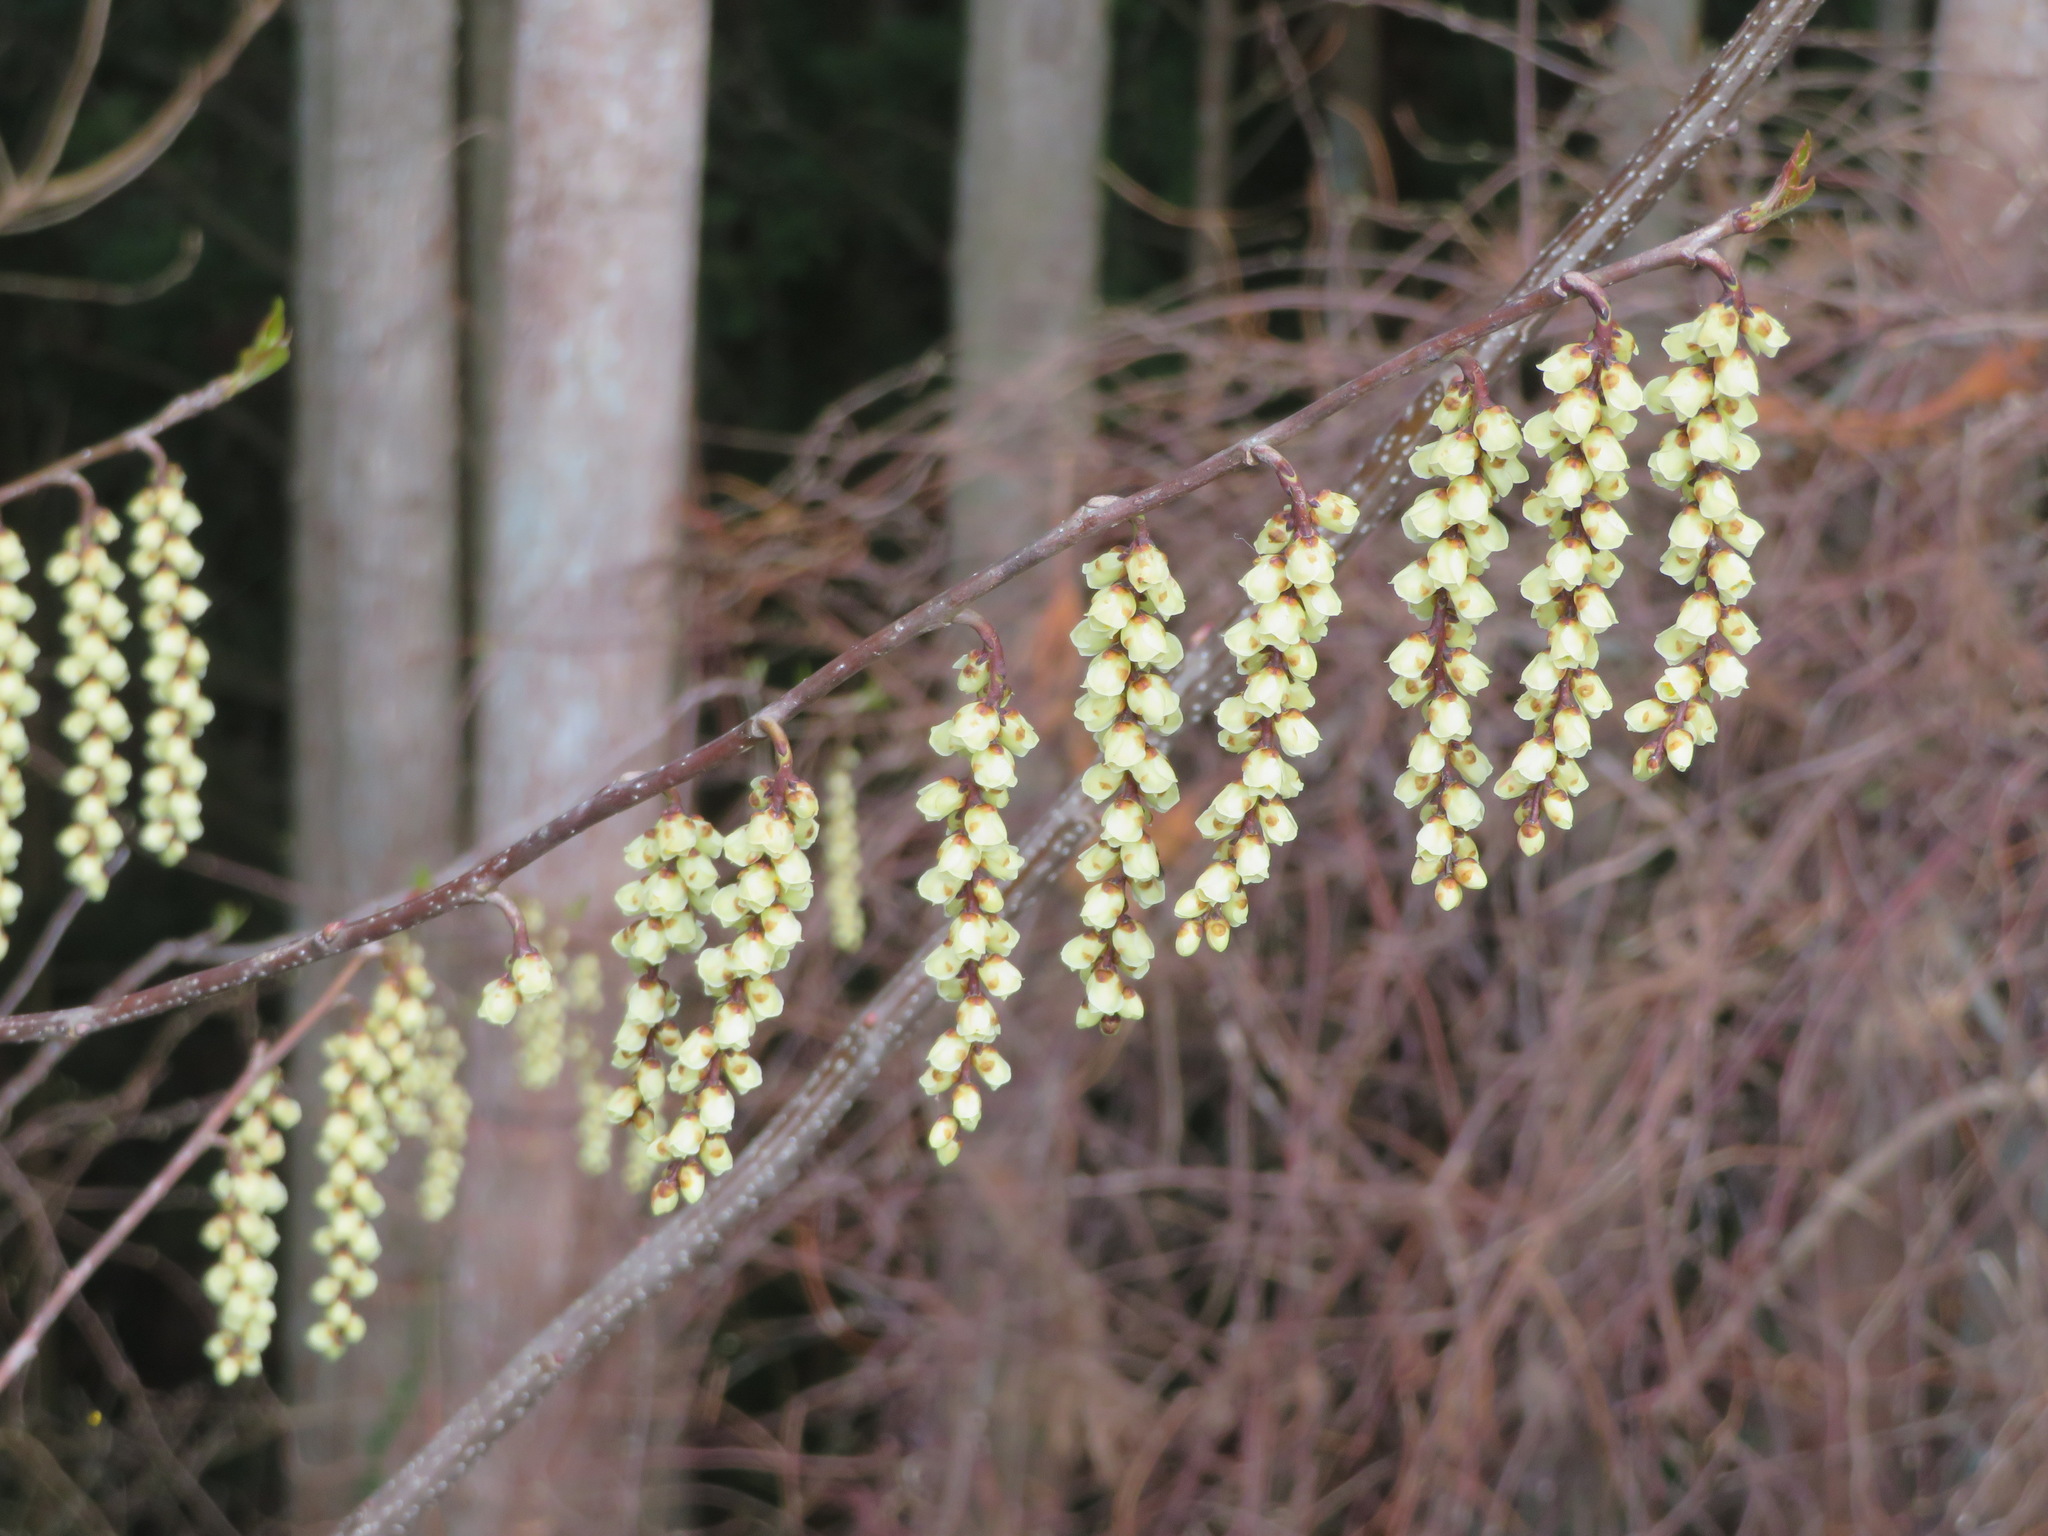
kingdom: Plantae
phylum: Tracheophyta
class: Magnoliopsida
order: Crossosomatales
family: Stachyuraceae
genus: Stachyurus
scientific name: Stachyurus praecox
